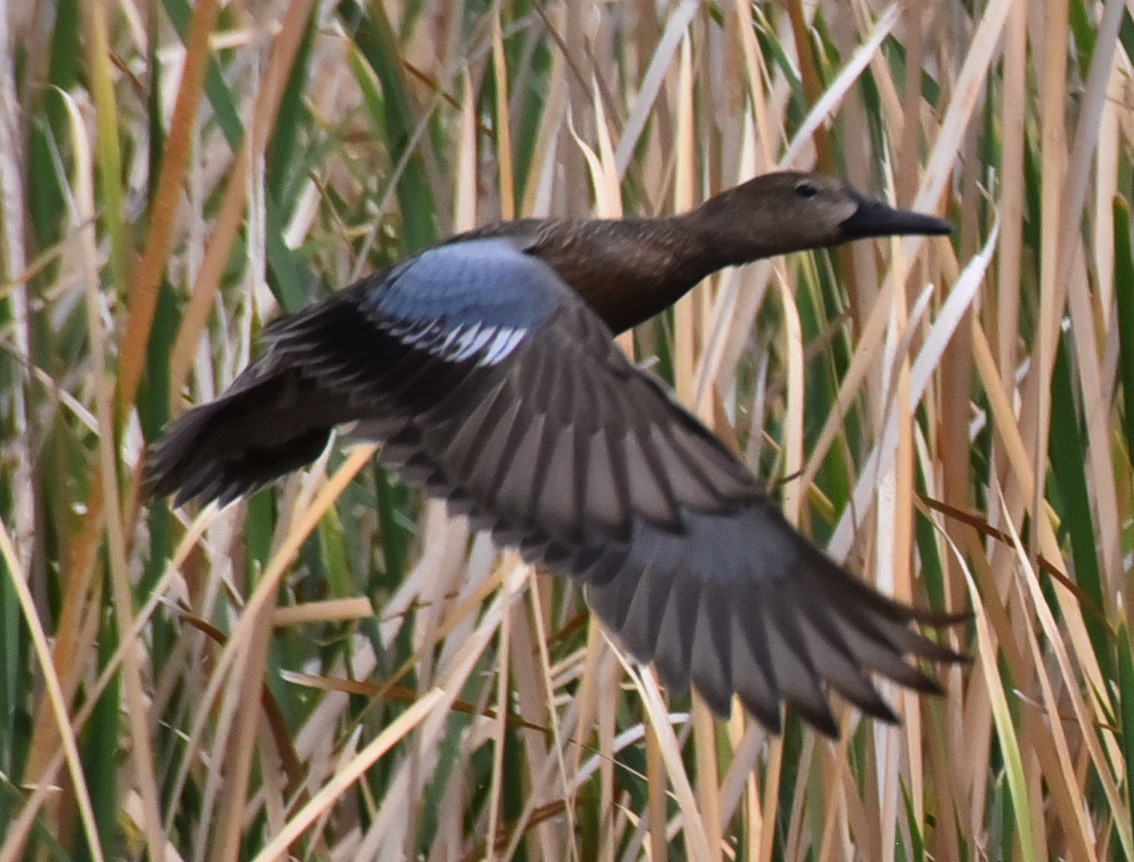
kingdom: Animalia
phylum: Chordata
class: Aves
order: Anseriformes
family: Anatidae
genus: Spatula
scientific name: Spatula discors
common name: Blue-winged teal
